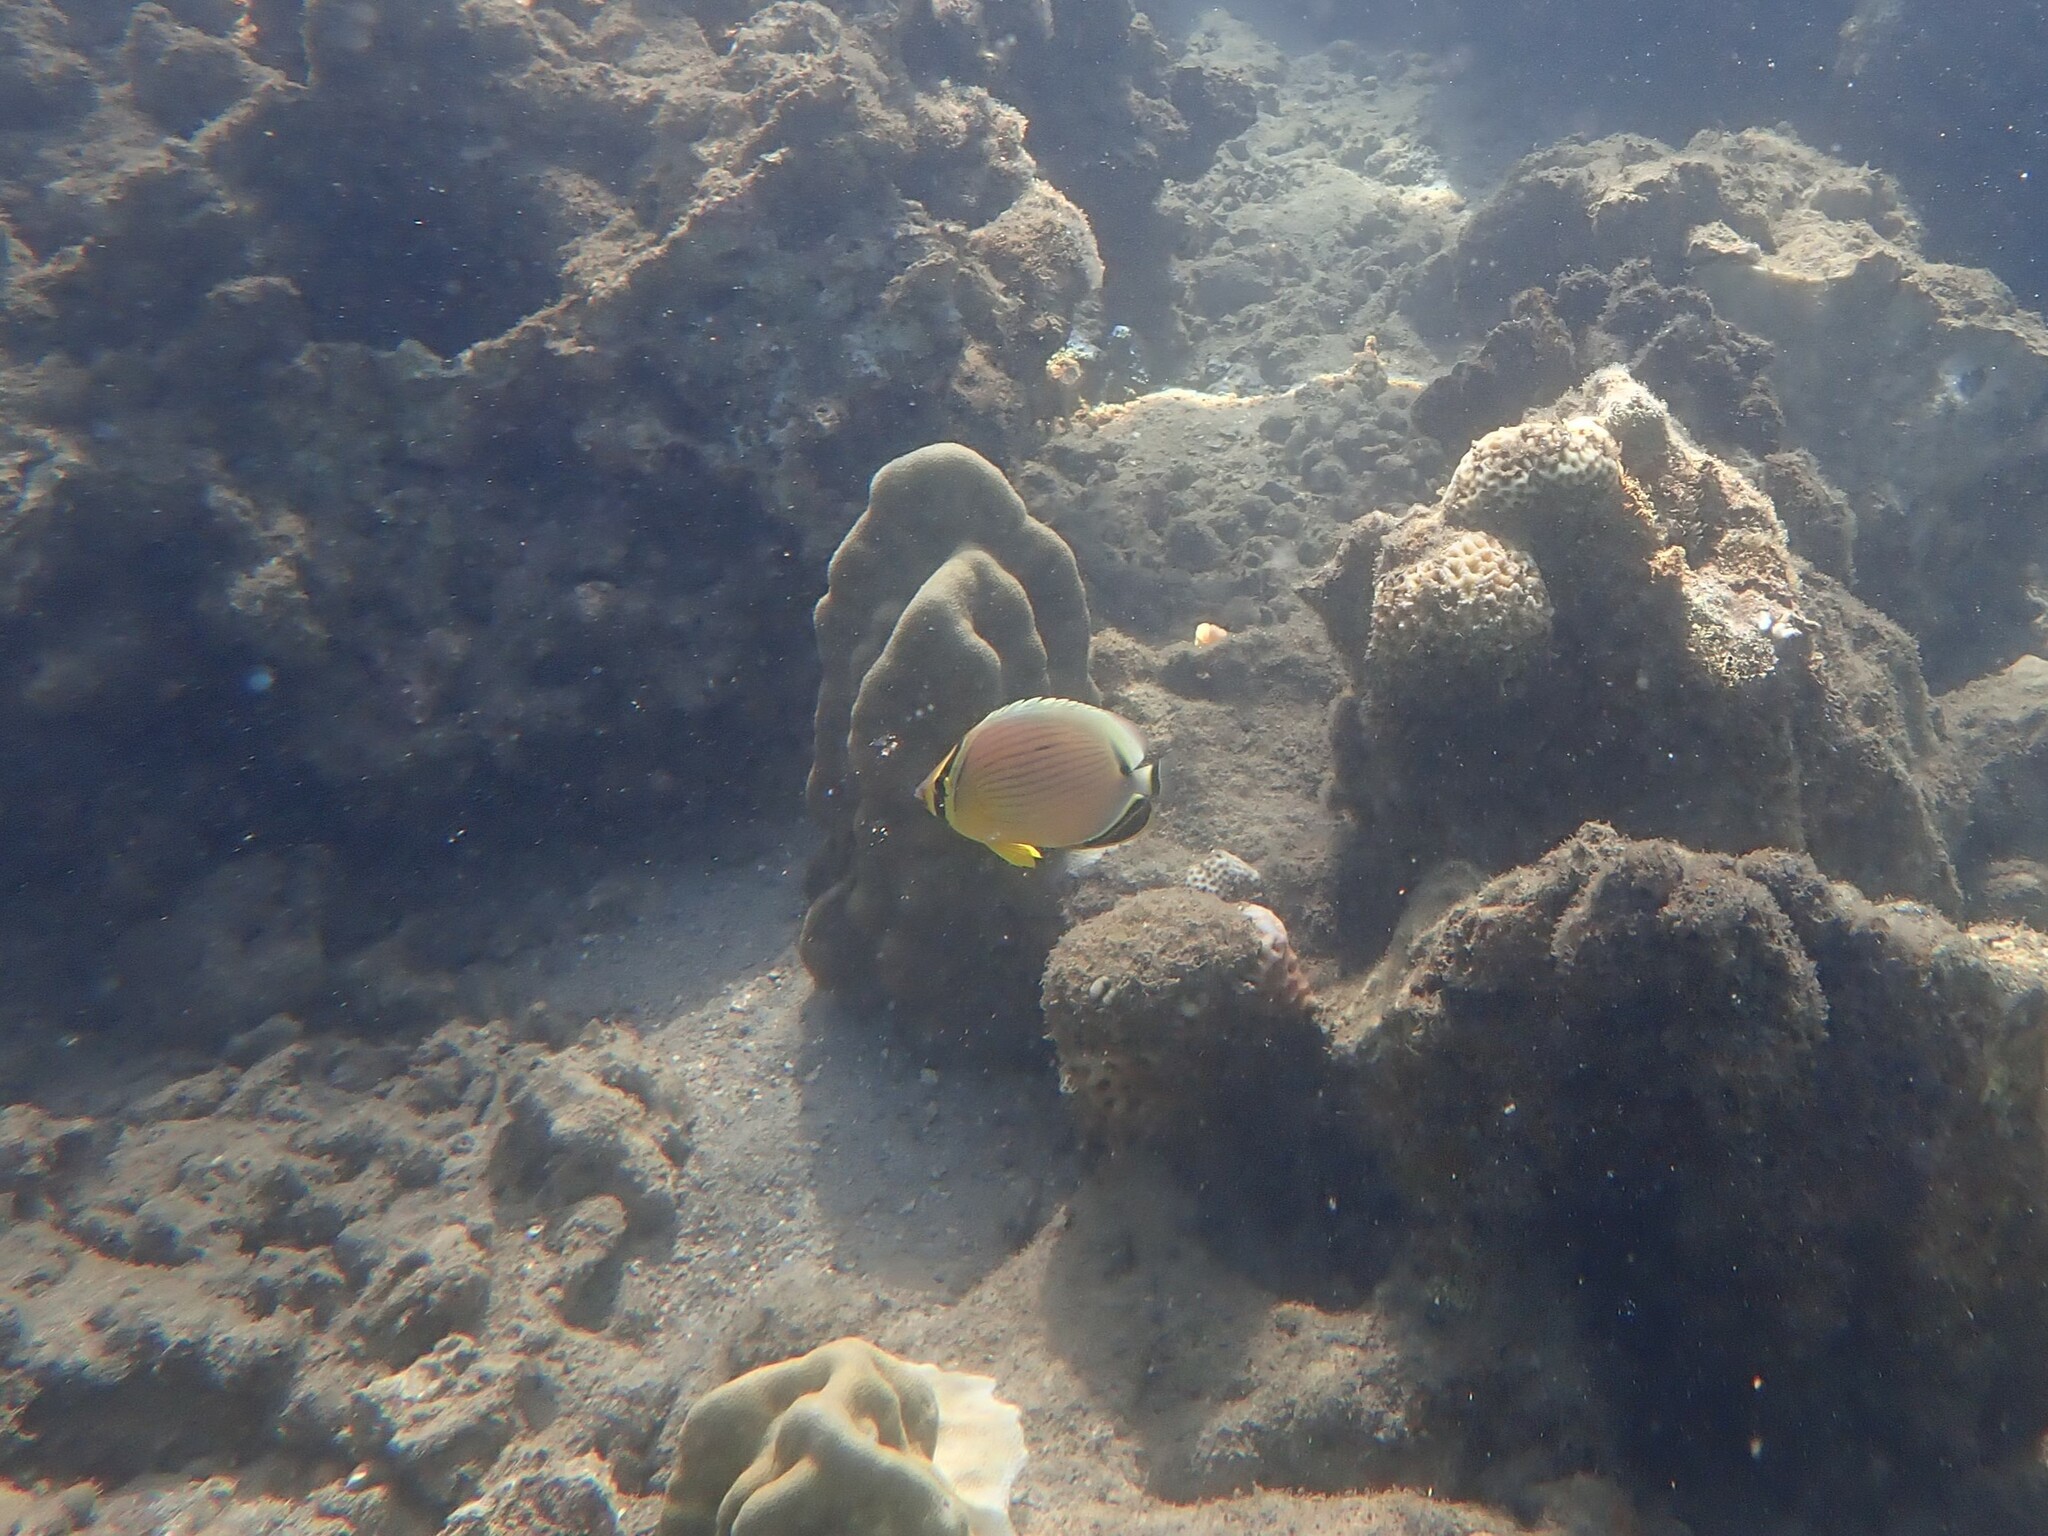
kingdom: Animalia
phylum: Chordata
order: Perciformes
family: Chaetodontidae
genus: Chaetodon
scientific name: Chaetodon lunulatus
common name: Redfin butterflyfish
